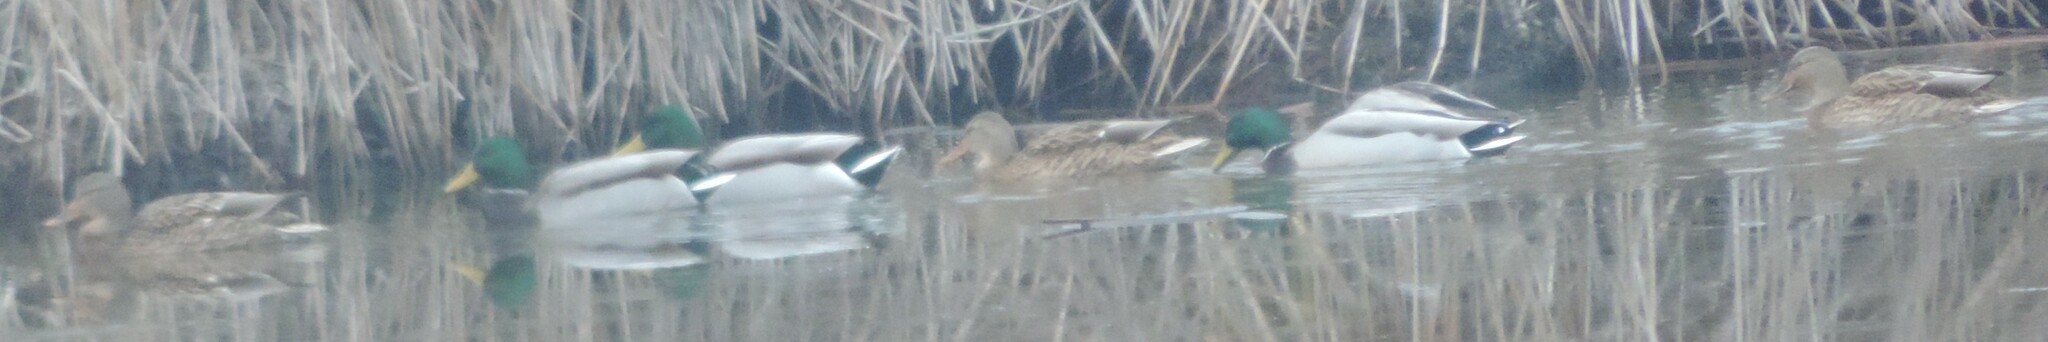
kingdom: Animalia
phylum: Chordata
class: Aves
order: Anseriformes
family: Anatidae
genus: Anas
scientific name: Anas platyrhynchos
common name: Mallard
